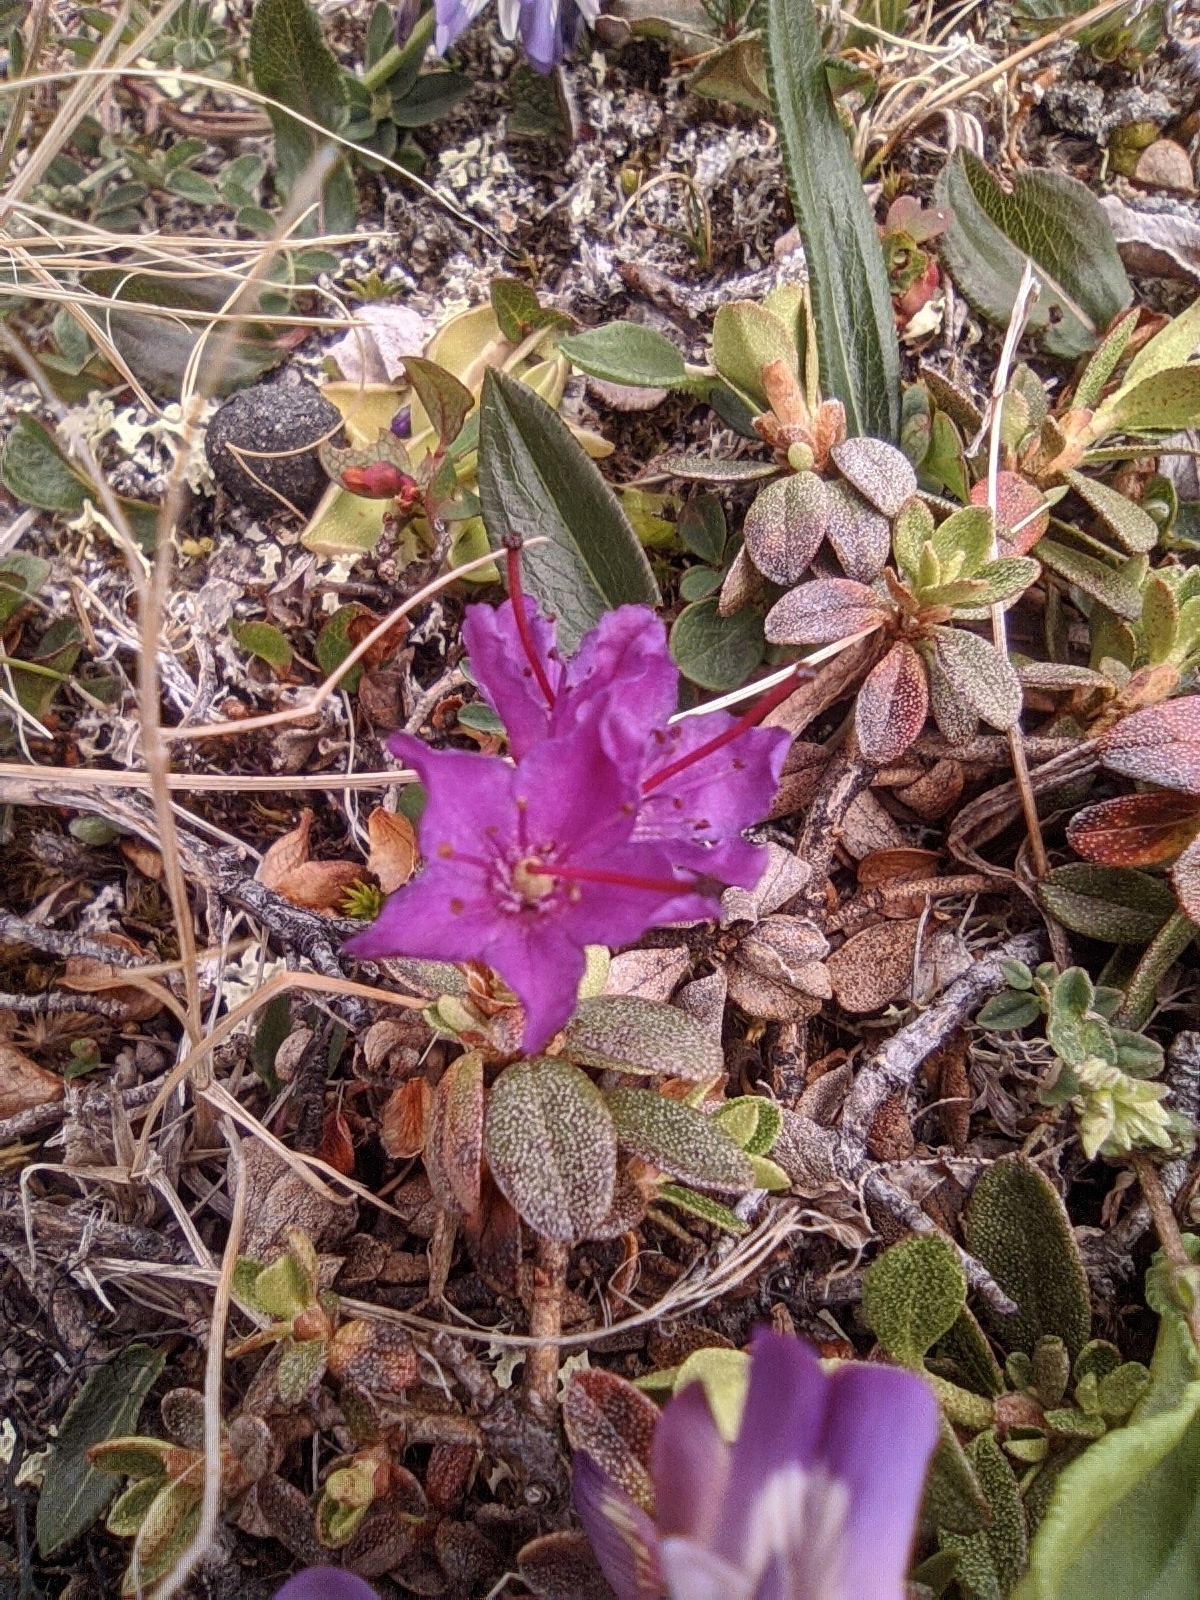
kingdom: Plantae
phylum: Tracheophyta
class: Magnoliopsida
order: Ericales
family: Ericaceae
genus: Rhododendron
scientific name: Rhododendron lapponicum
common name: Lapland rhododendron
